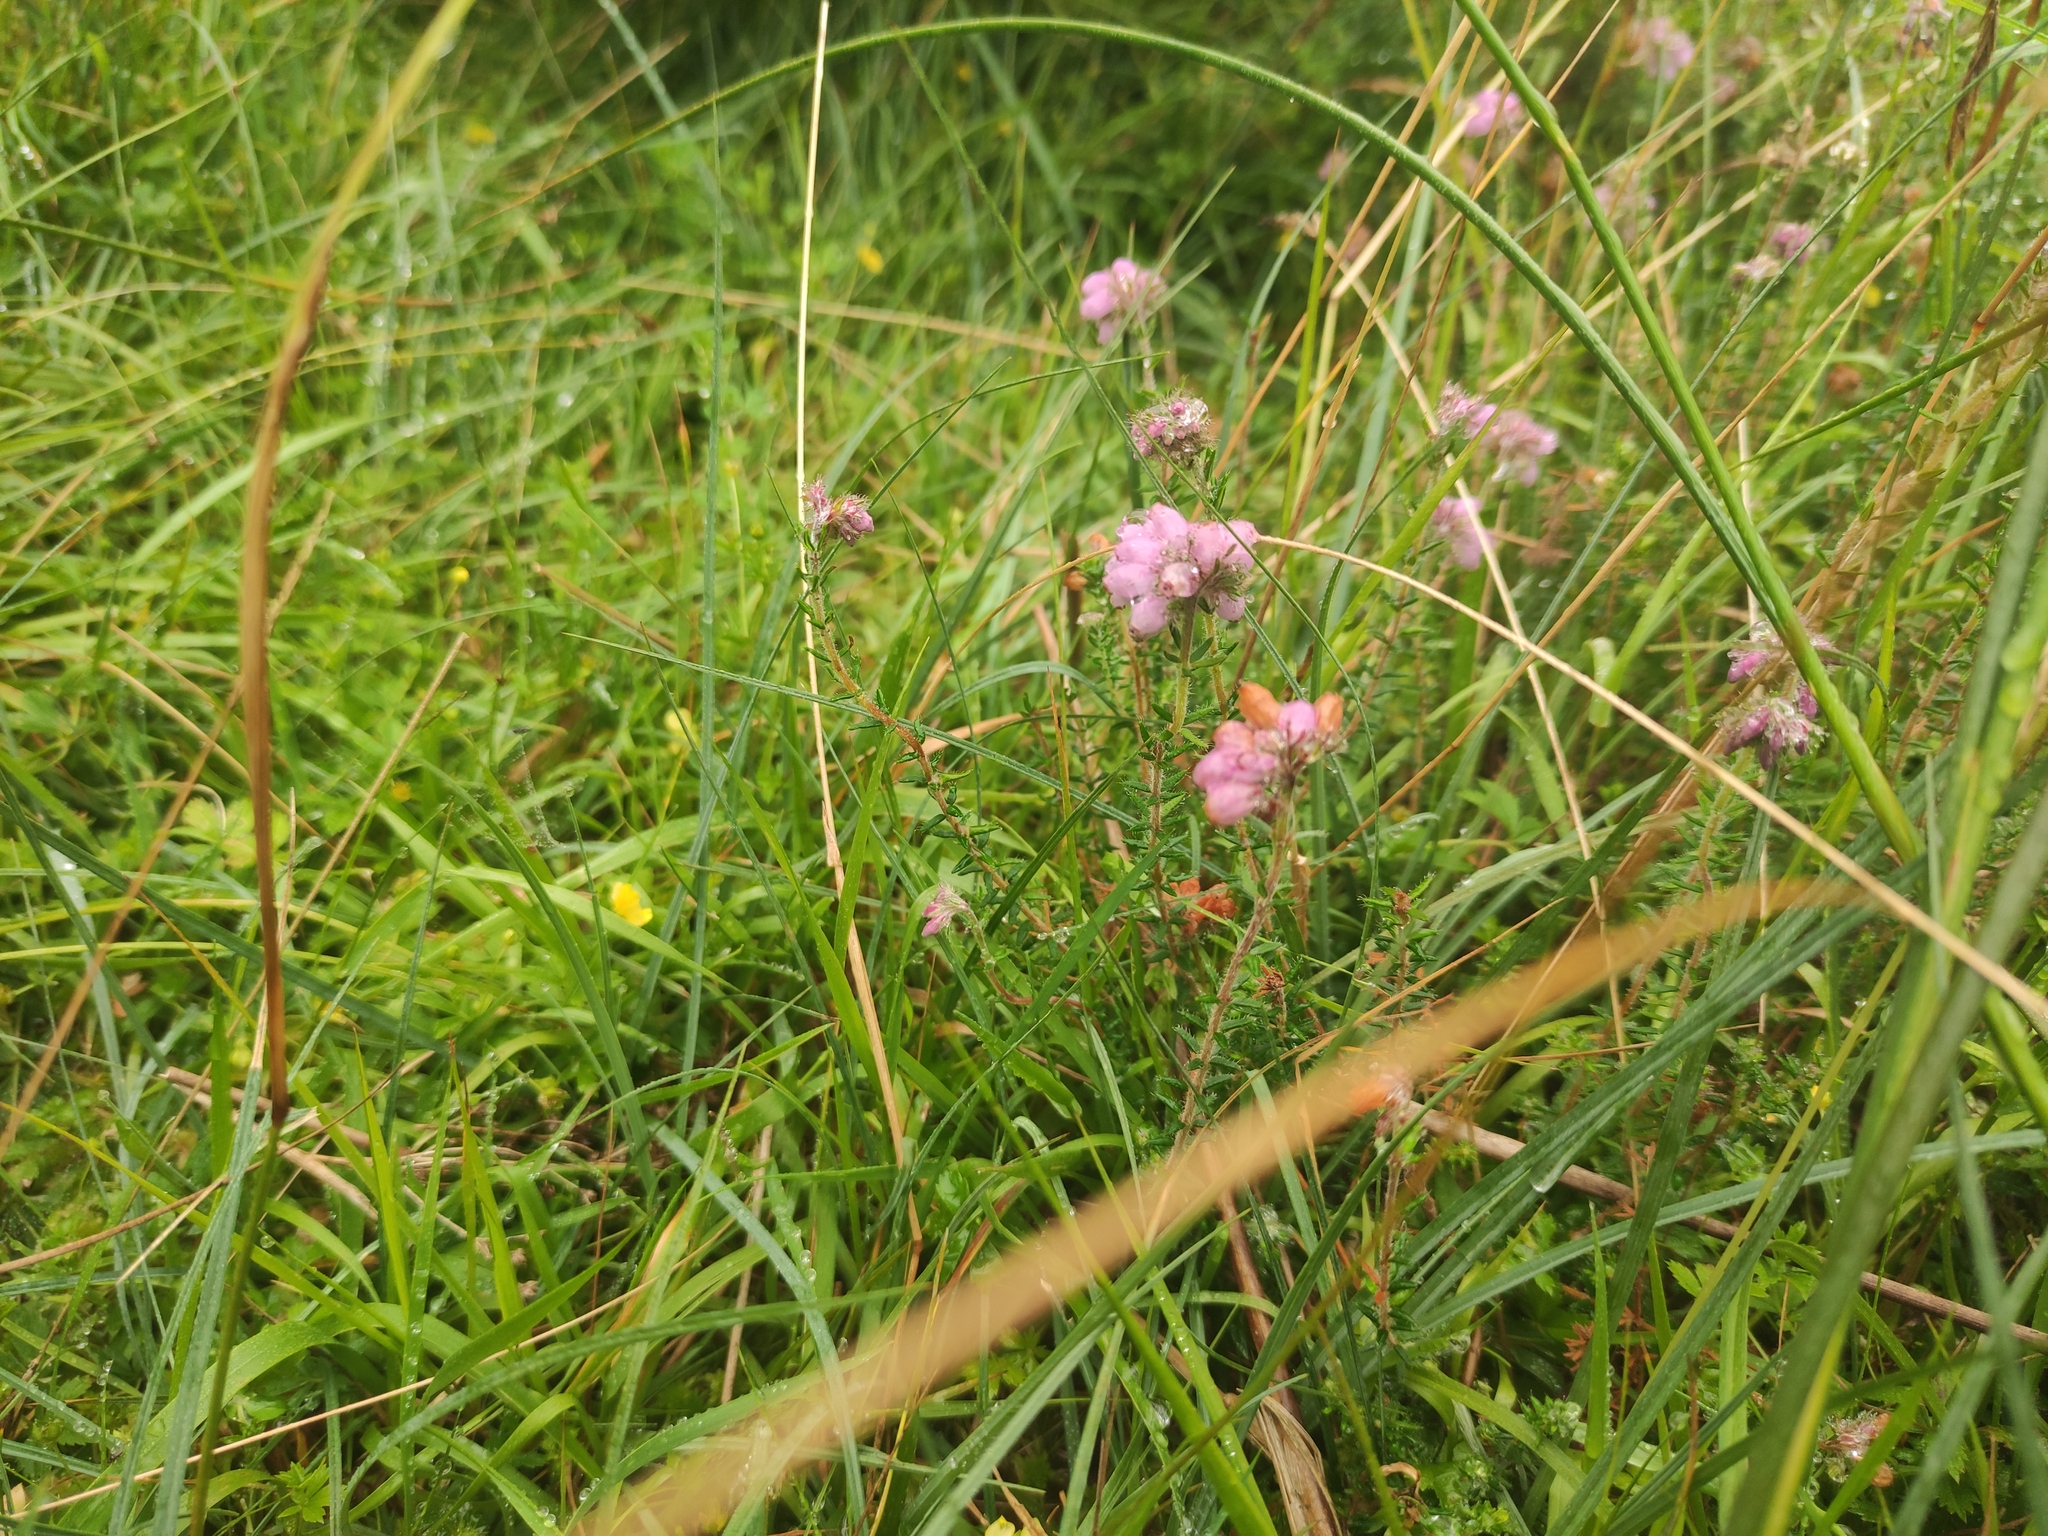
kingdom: Plantae
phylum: Tracheophyta
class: Magnoliopsida
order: Ericales
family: Ericaceae
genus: Erica
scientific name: Erica tetralix
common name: Cross-leaved heath
